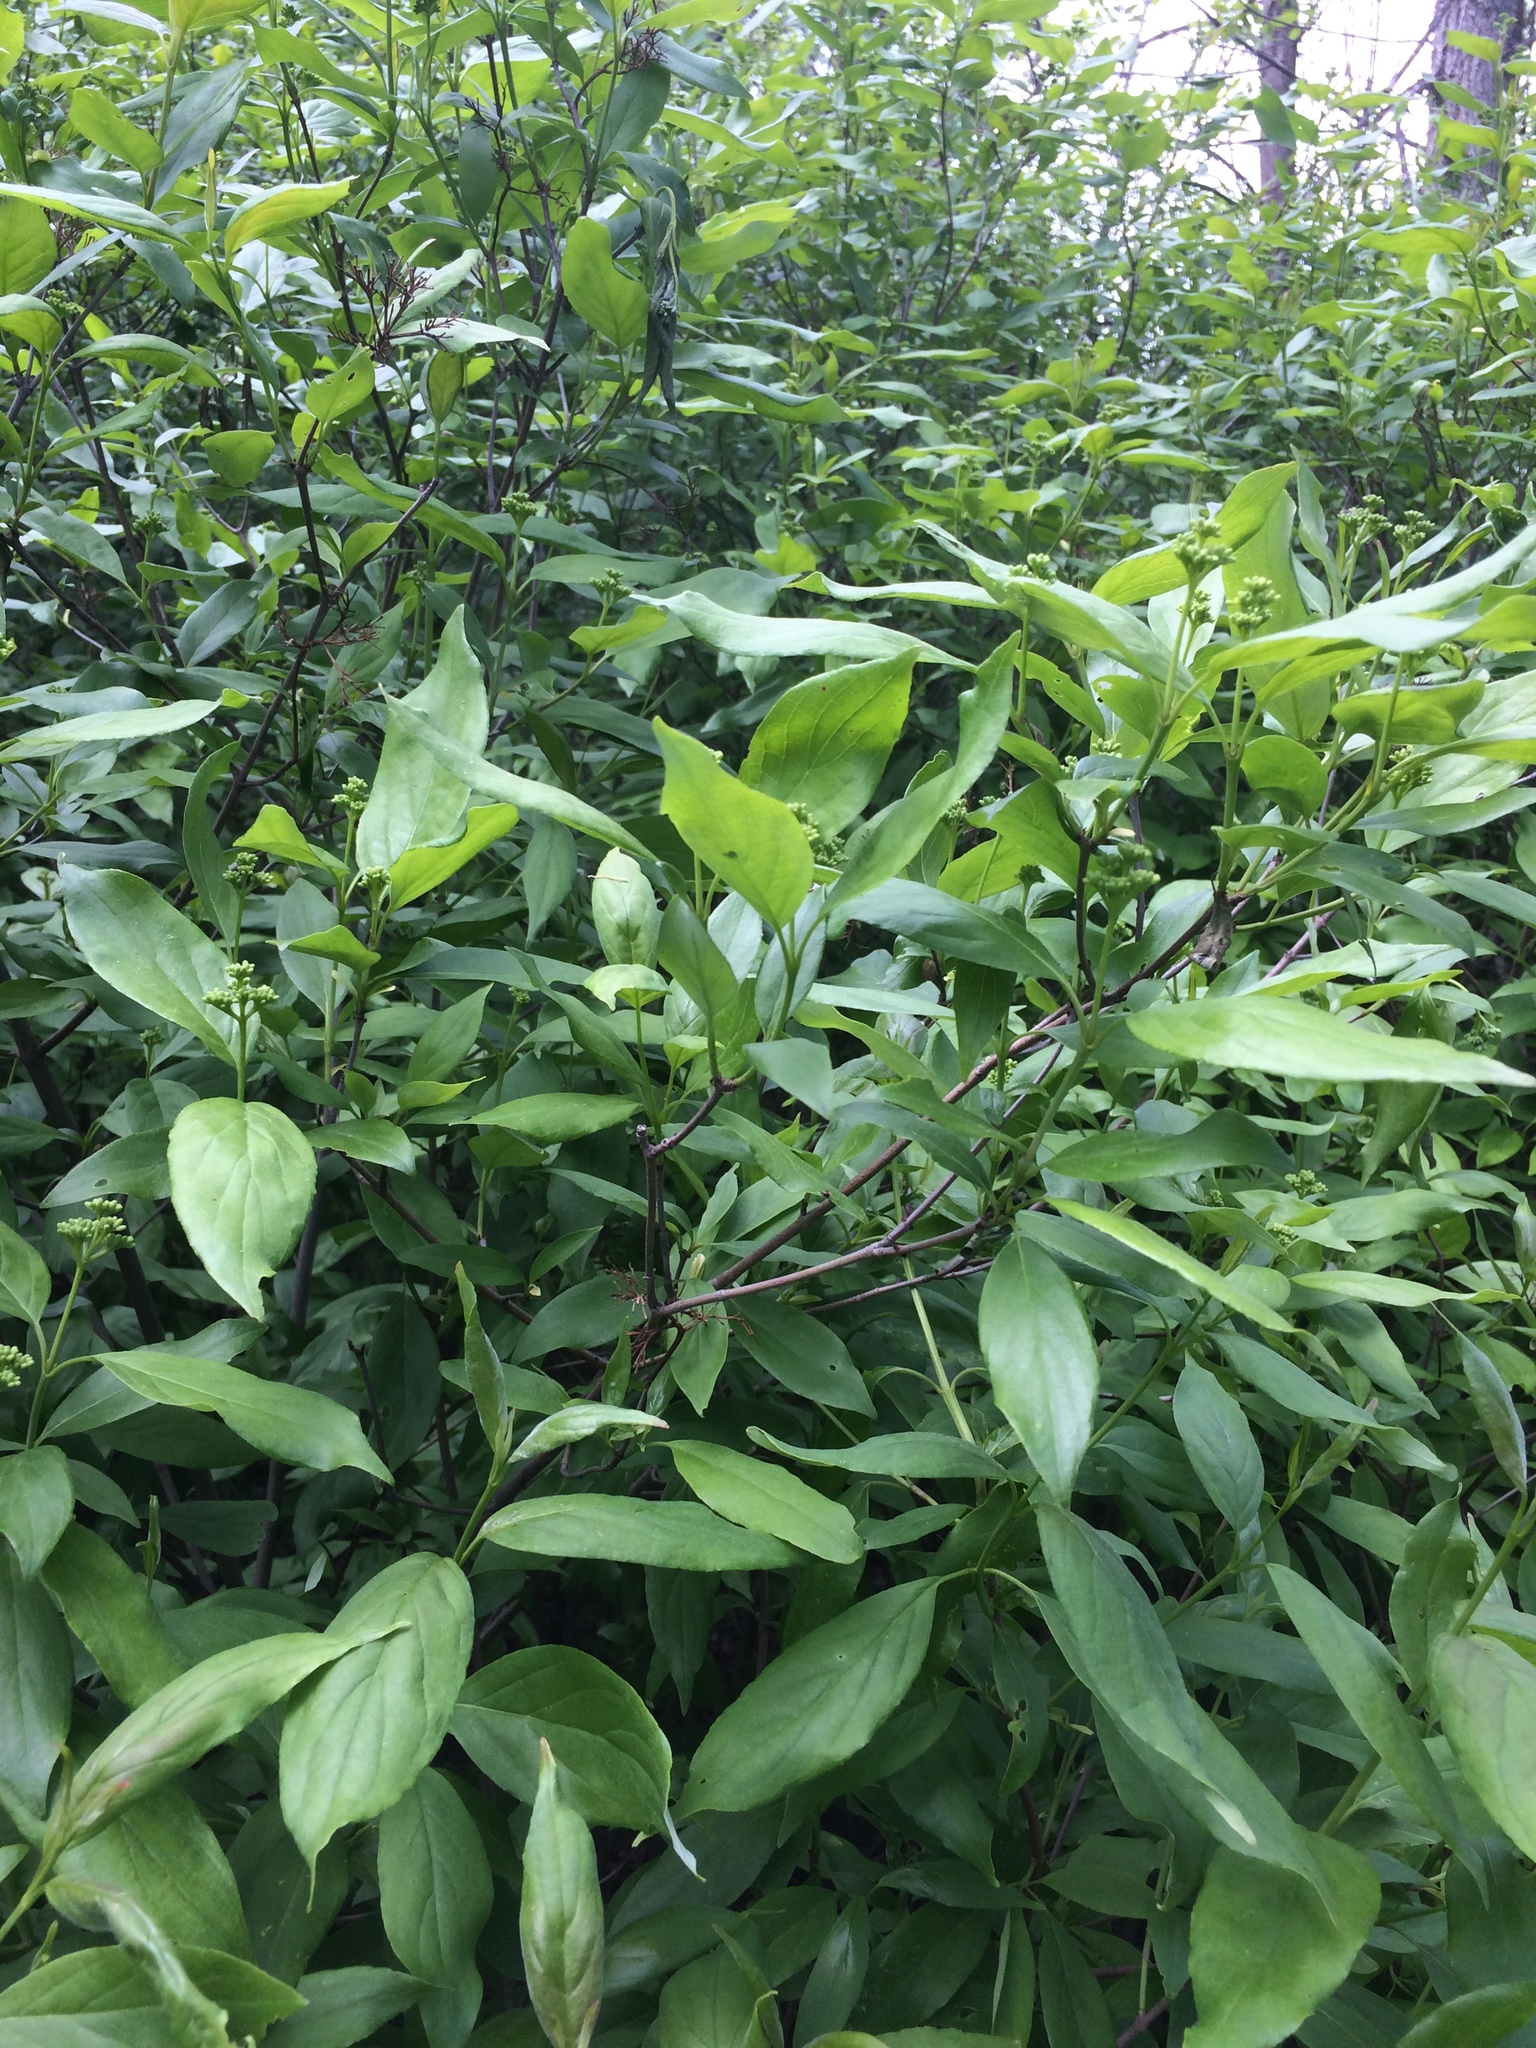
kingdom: Plantae
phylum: Tracheophyta
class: Magnoliopsida
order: Cornales
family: Cornaceae
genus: Cornus
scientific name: Cornus racemosa
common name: Panicled dogwood
